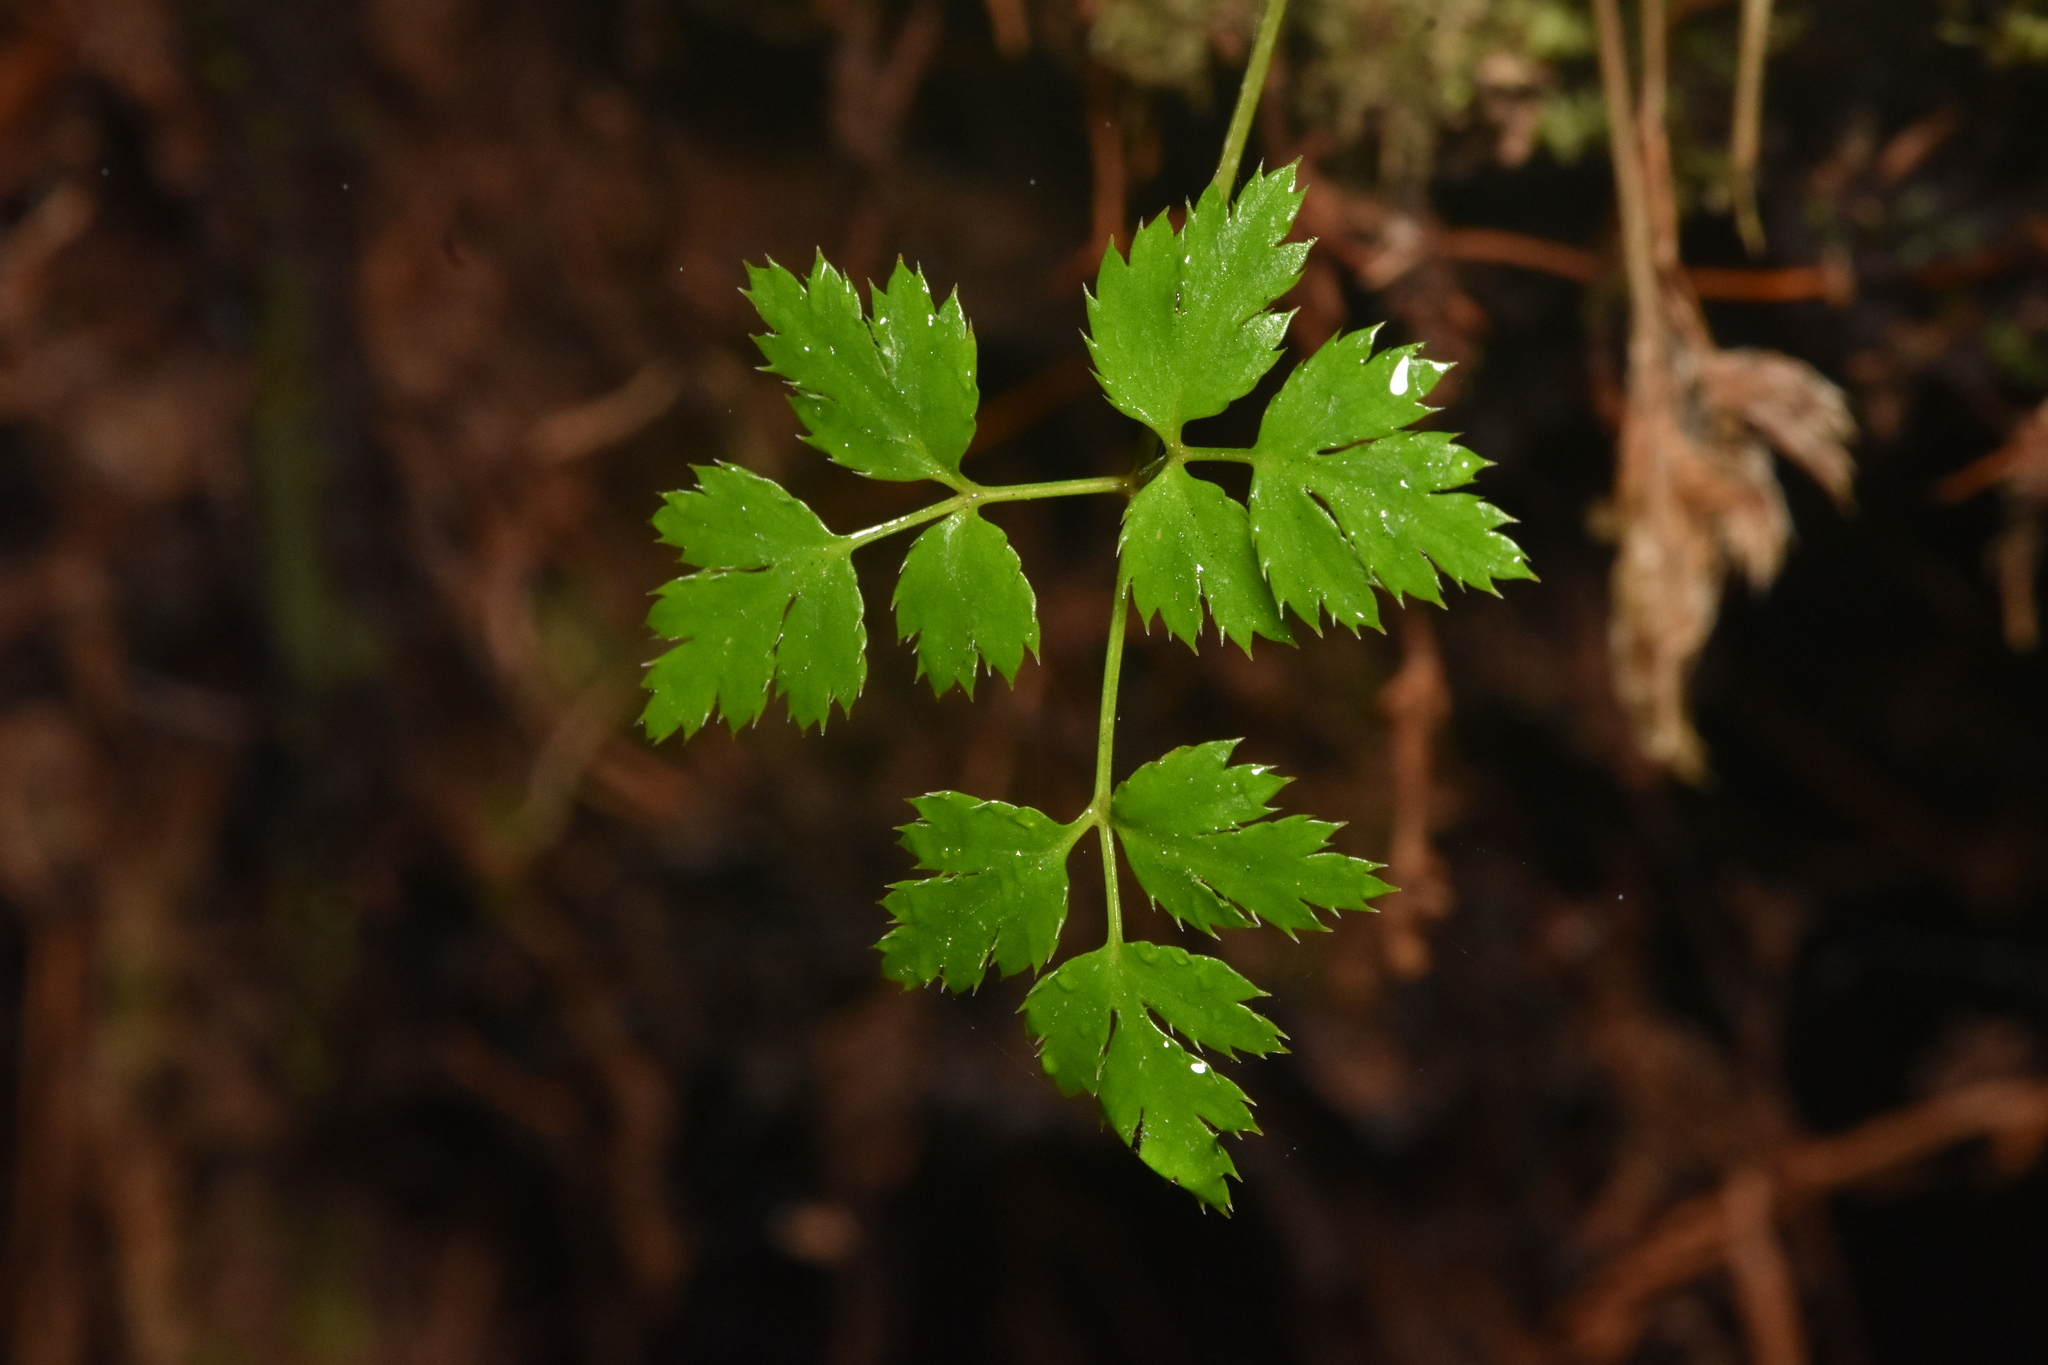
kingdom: Plantae
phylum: Tracheophyta
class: Magnoliopsida
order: Ranunculales
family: Ranunculaceae
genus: Coptis
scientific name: Coptis aspleniifolia
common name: Fern-leaved goldthread
